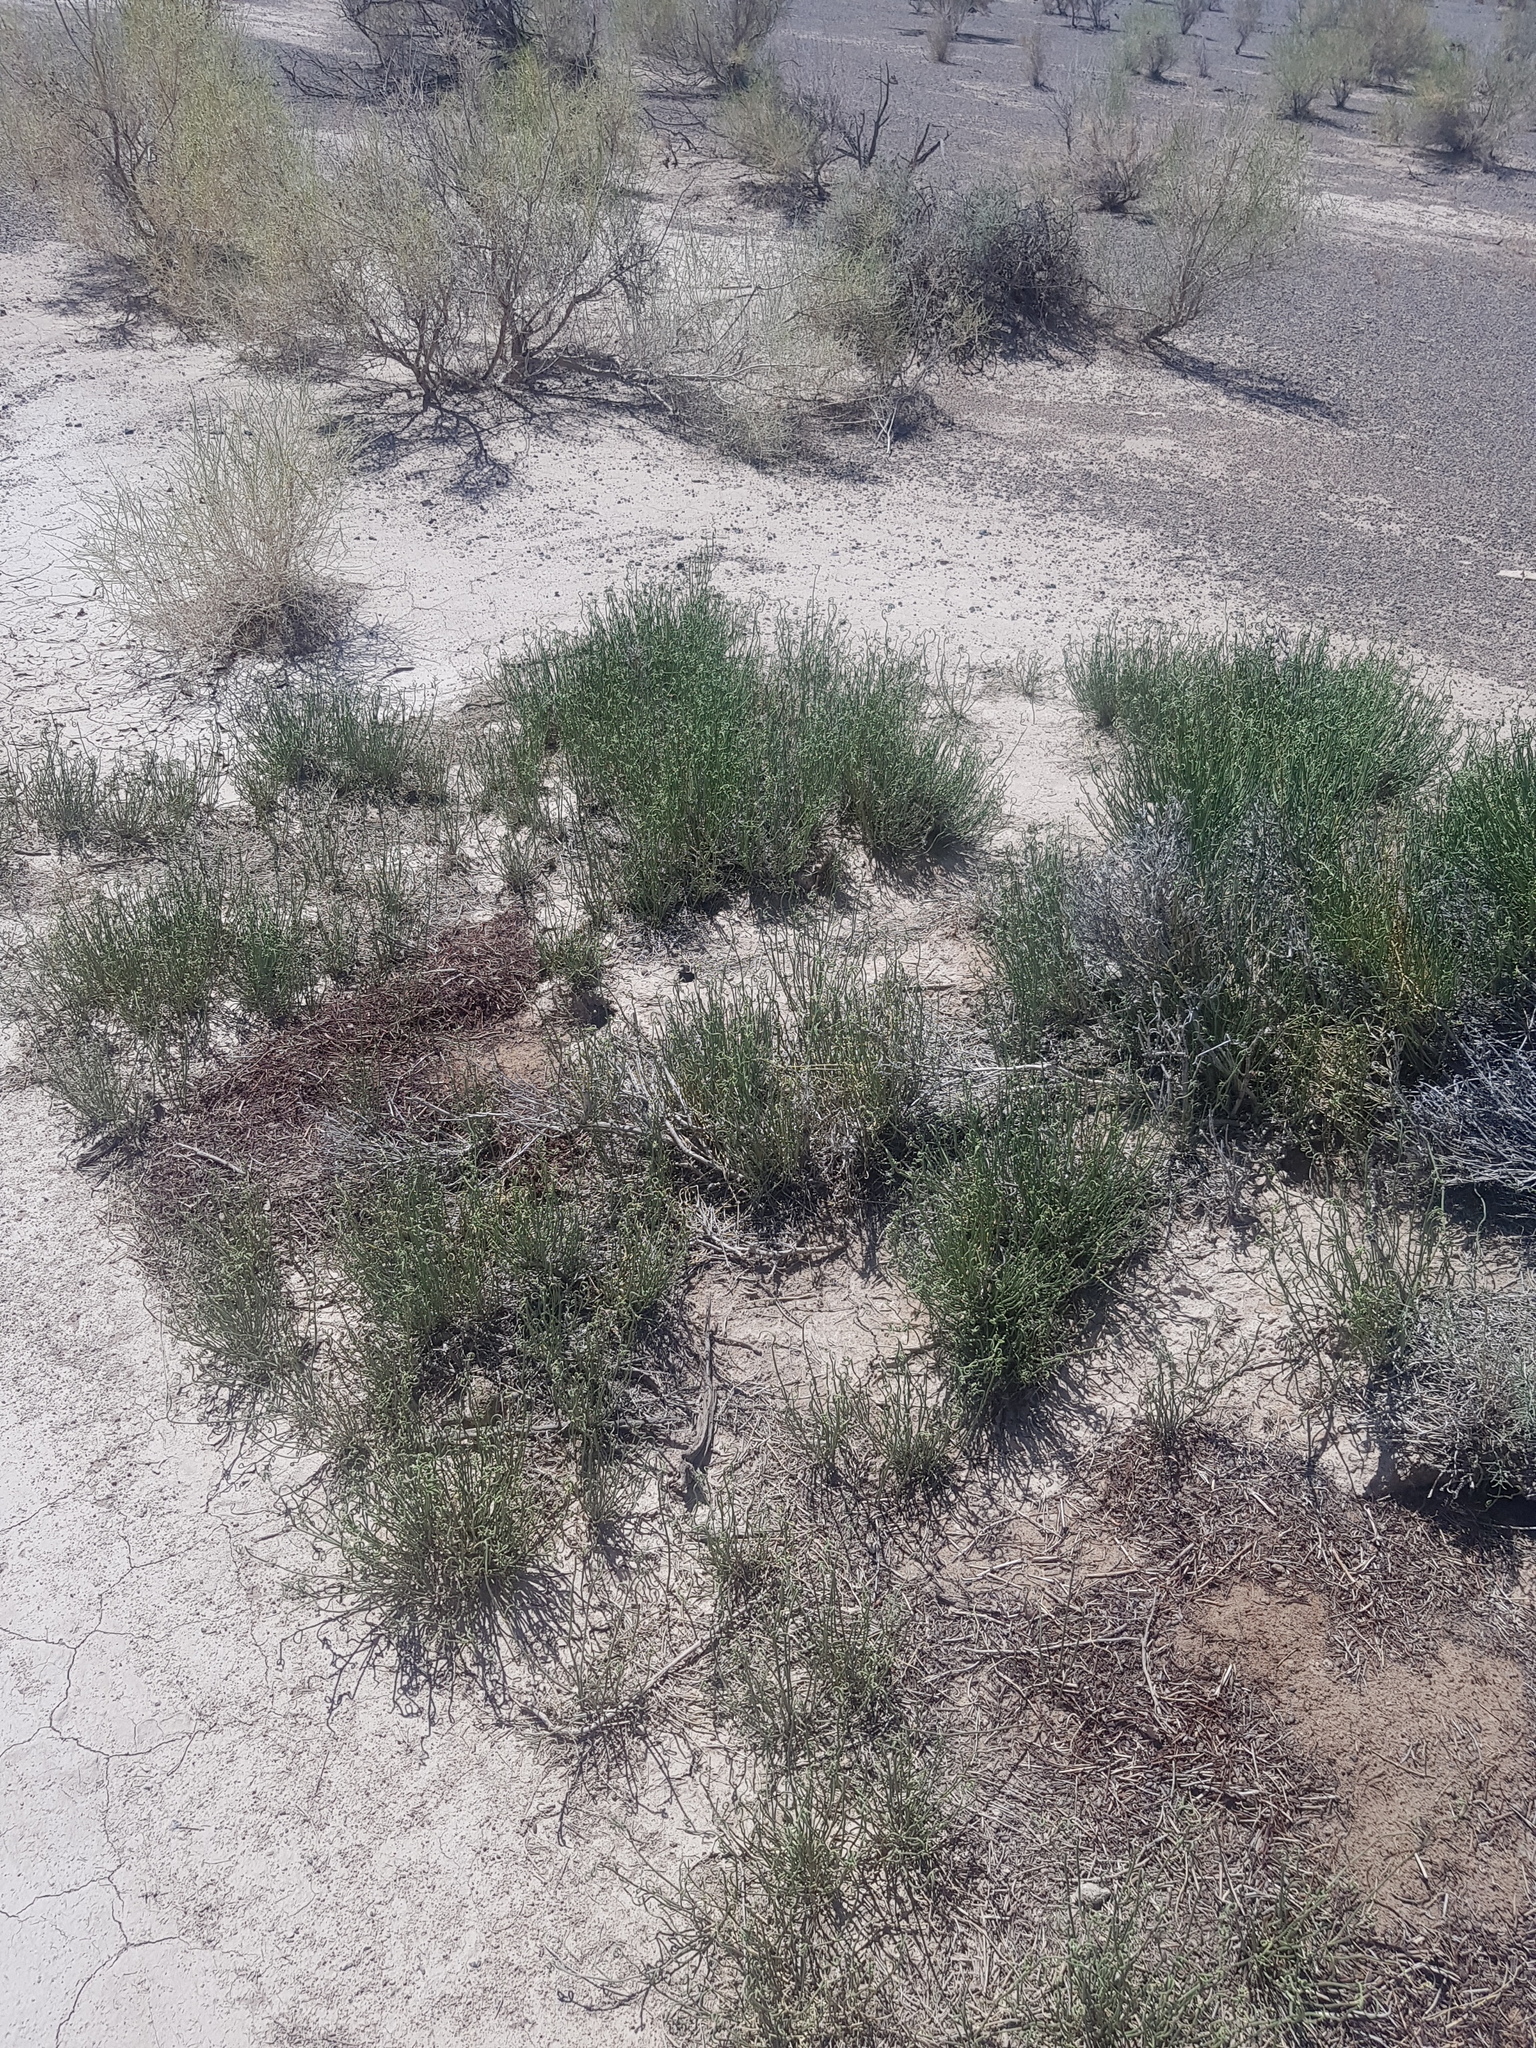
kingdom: Plantae
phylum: Tracheophyta
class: Gnetopsida
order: Ephedrales
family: Ephedraceae
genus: Ephedra
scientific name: Ephedra przewalskii
